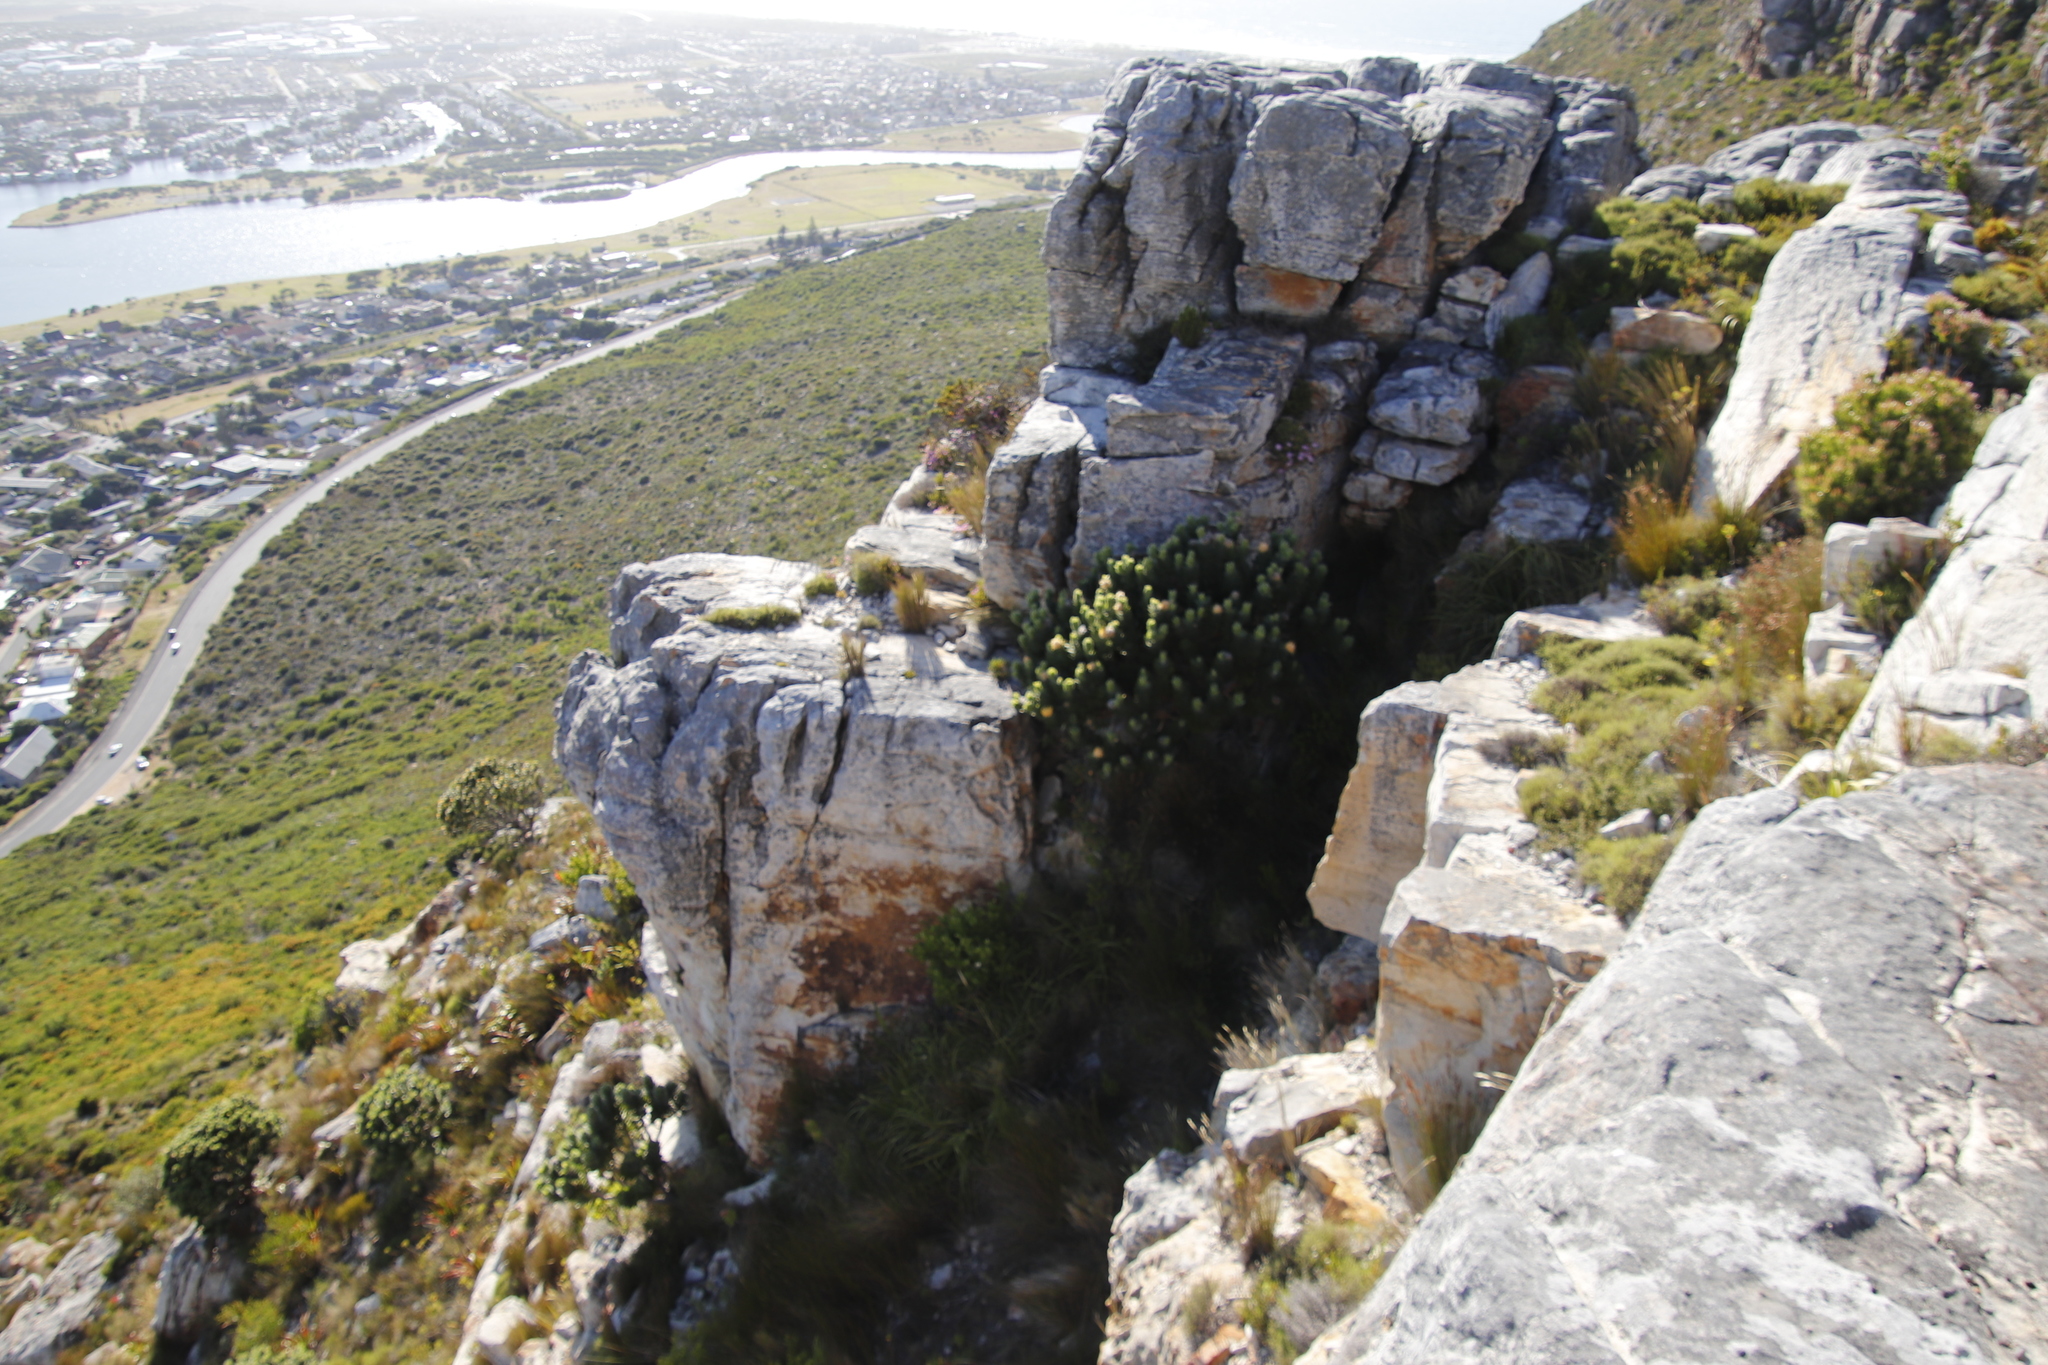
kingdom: Plantae
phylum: Tracheophyta
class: Magnoliopsida
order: Proteales
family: Proteaceae
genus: Leucospermum
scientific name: Leucospermum conocarpodendron
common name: Tree pincushion
